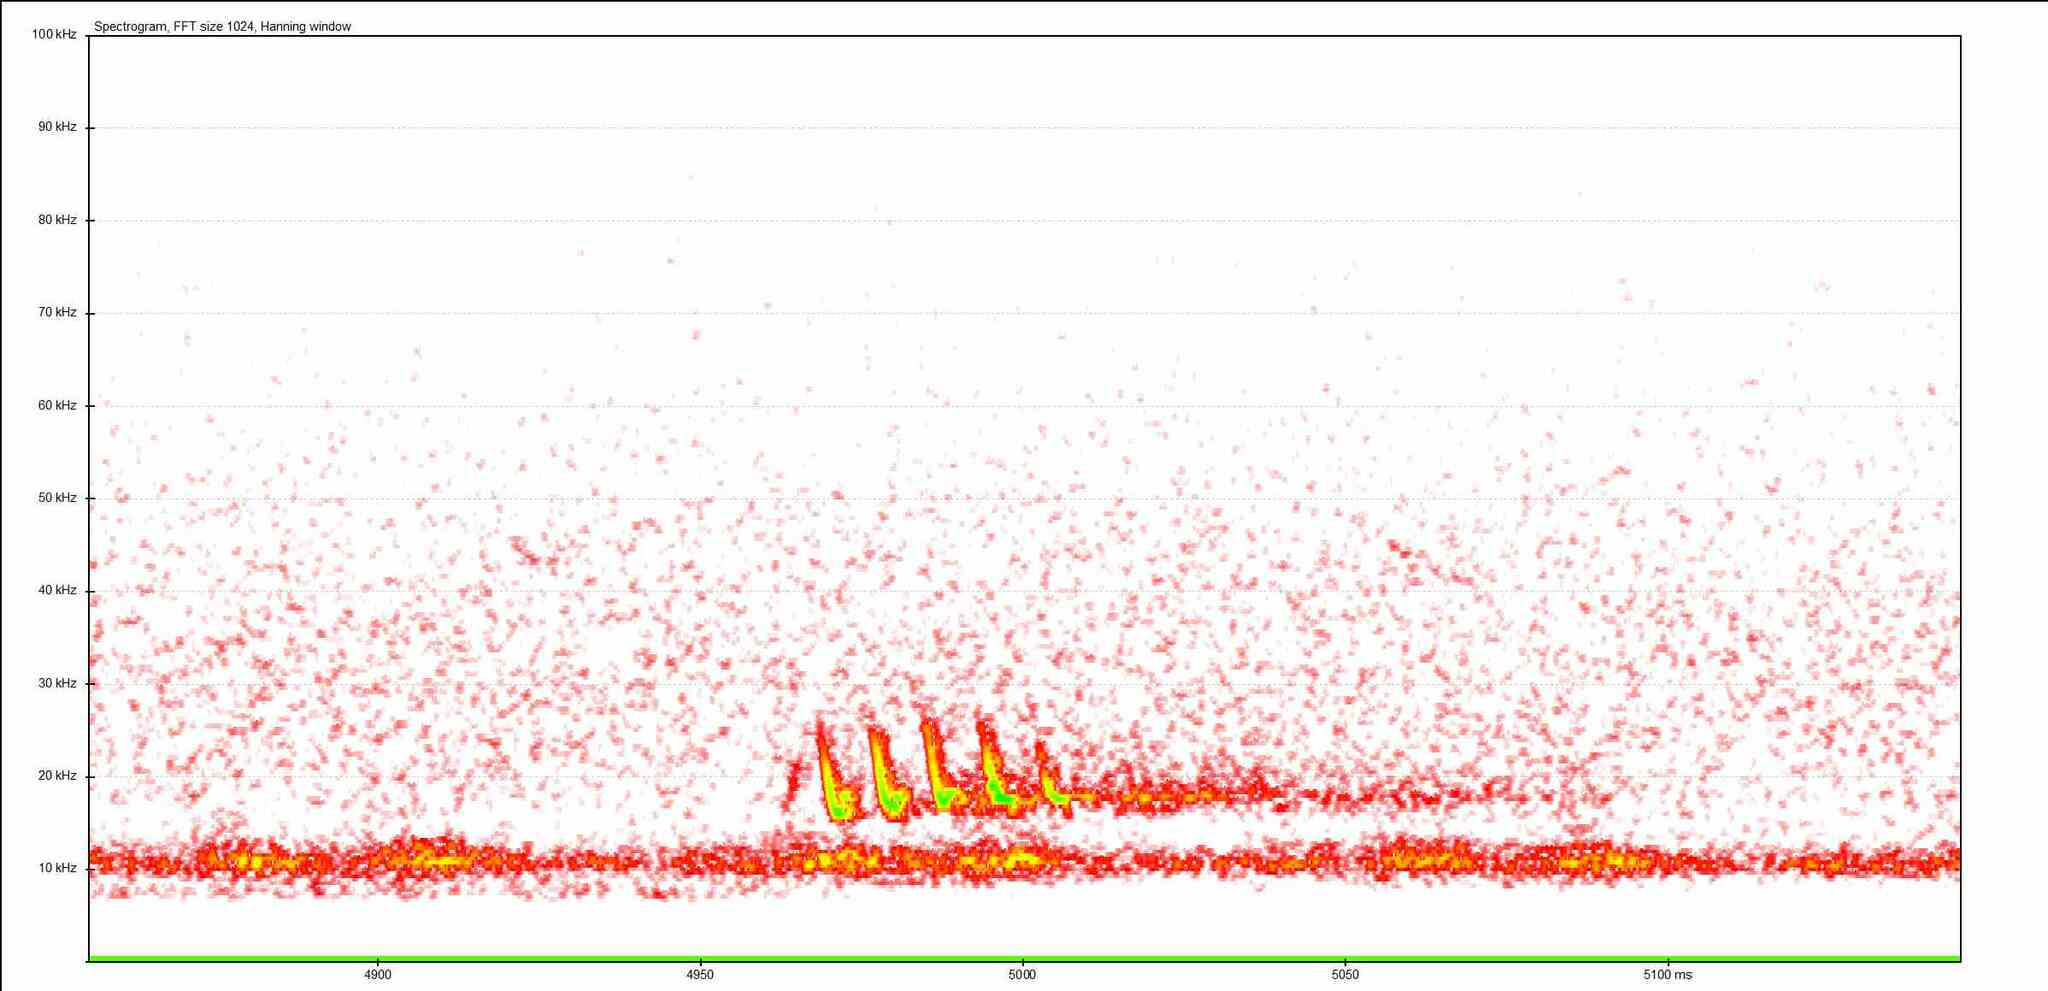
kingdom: Animalia
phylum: Chordata
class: Mammalia
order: Chiroptera
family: Vespertilionidae
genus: Pipistrellus
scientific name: Pipistrellus pipistrellus
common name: Common pipistrelle
